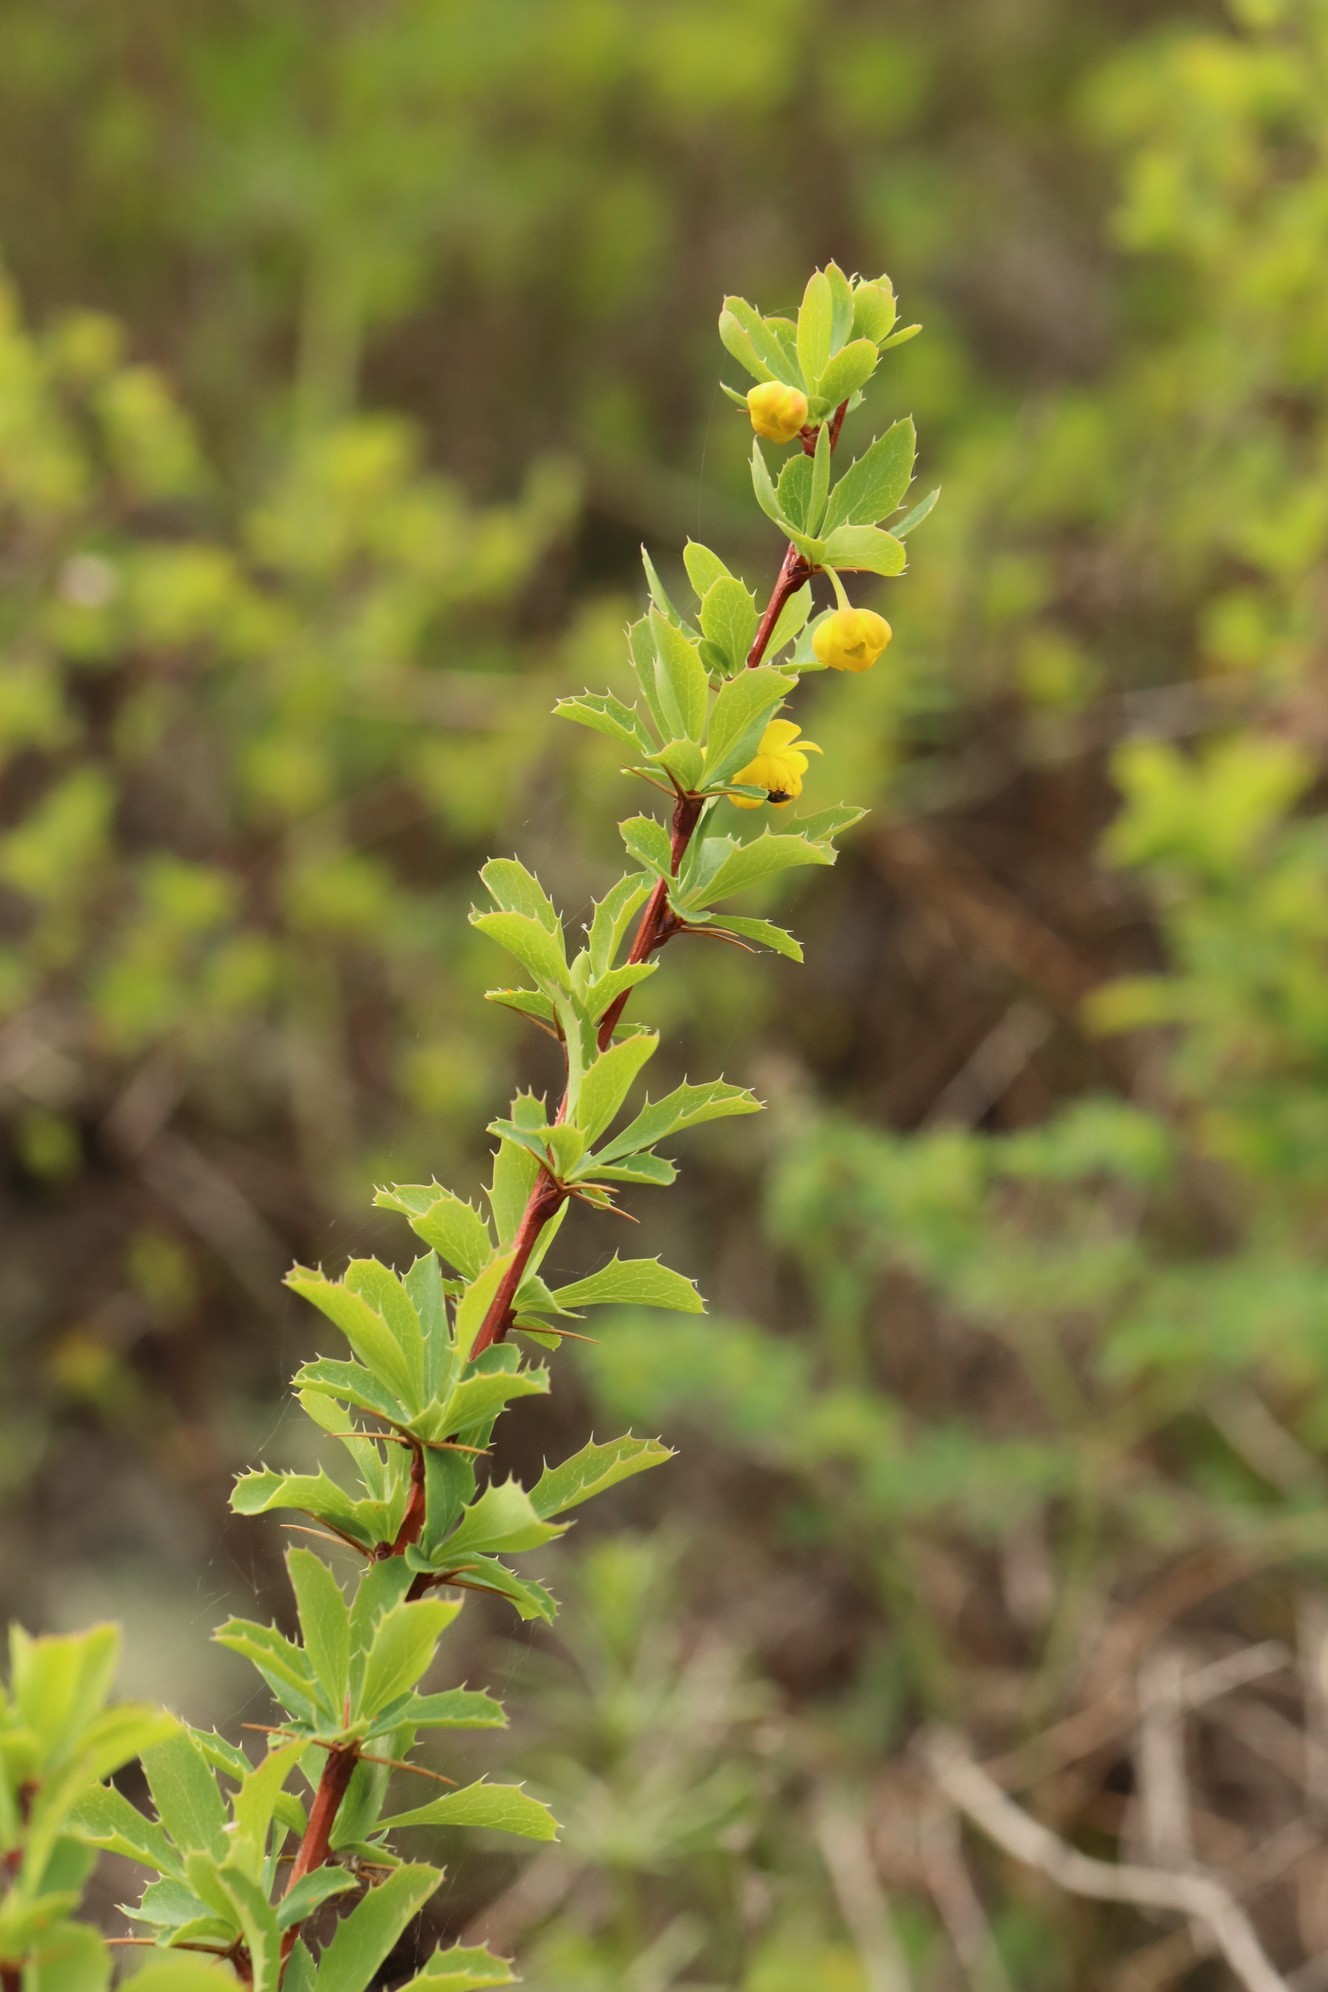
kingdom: Plantae
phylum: Tracheophyta
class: Magnoliopsida
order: Ranunculales
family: Berberidaceae
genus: Berberis
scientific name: Berberis sibirica
